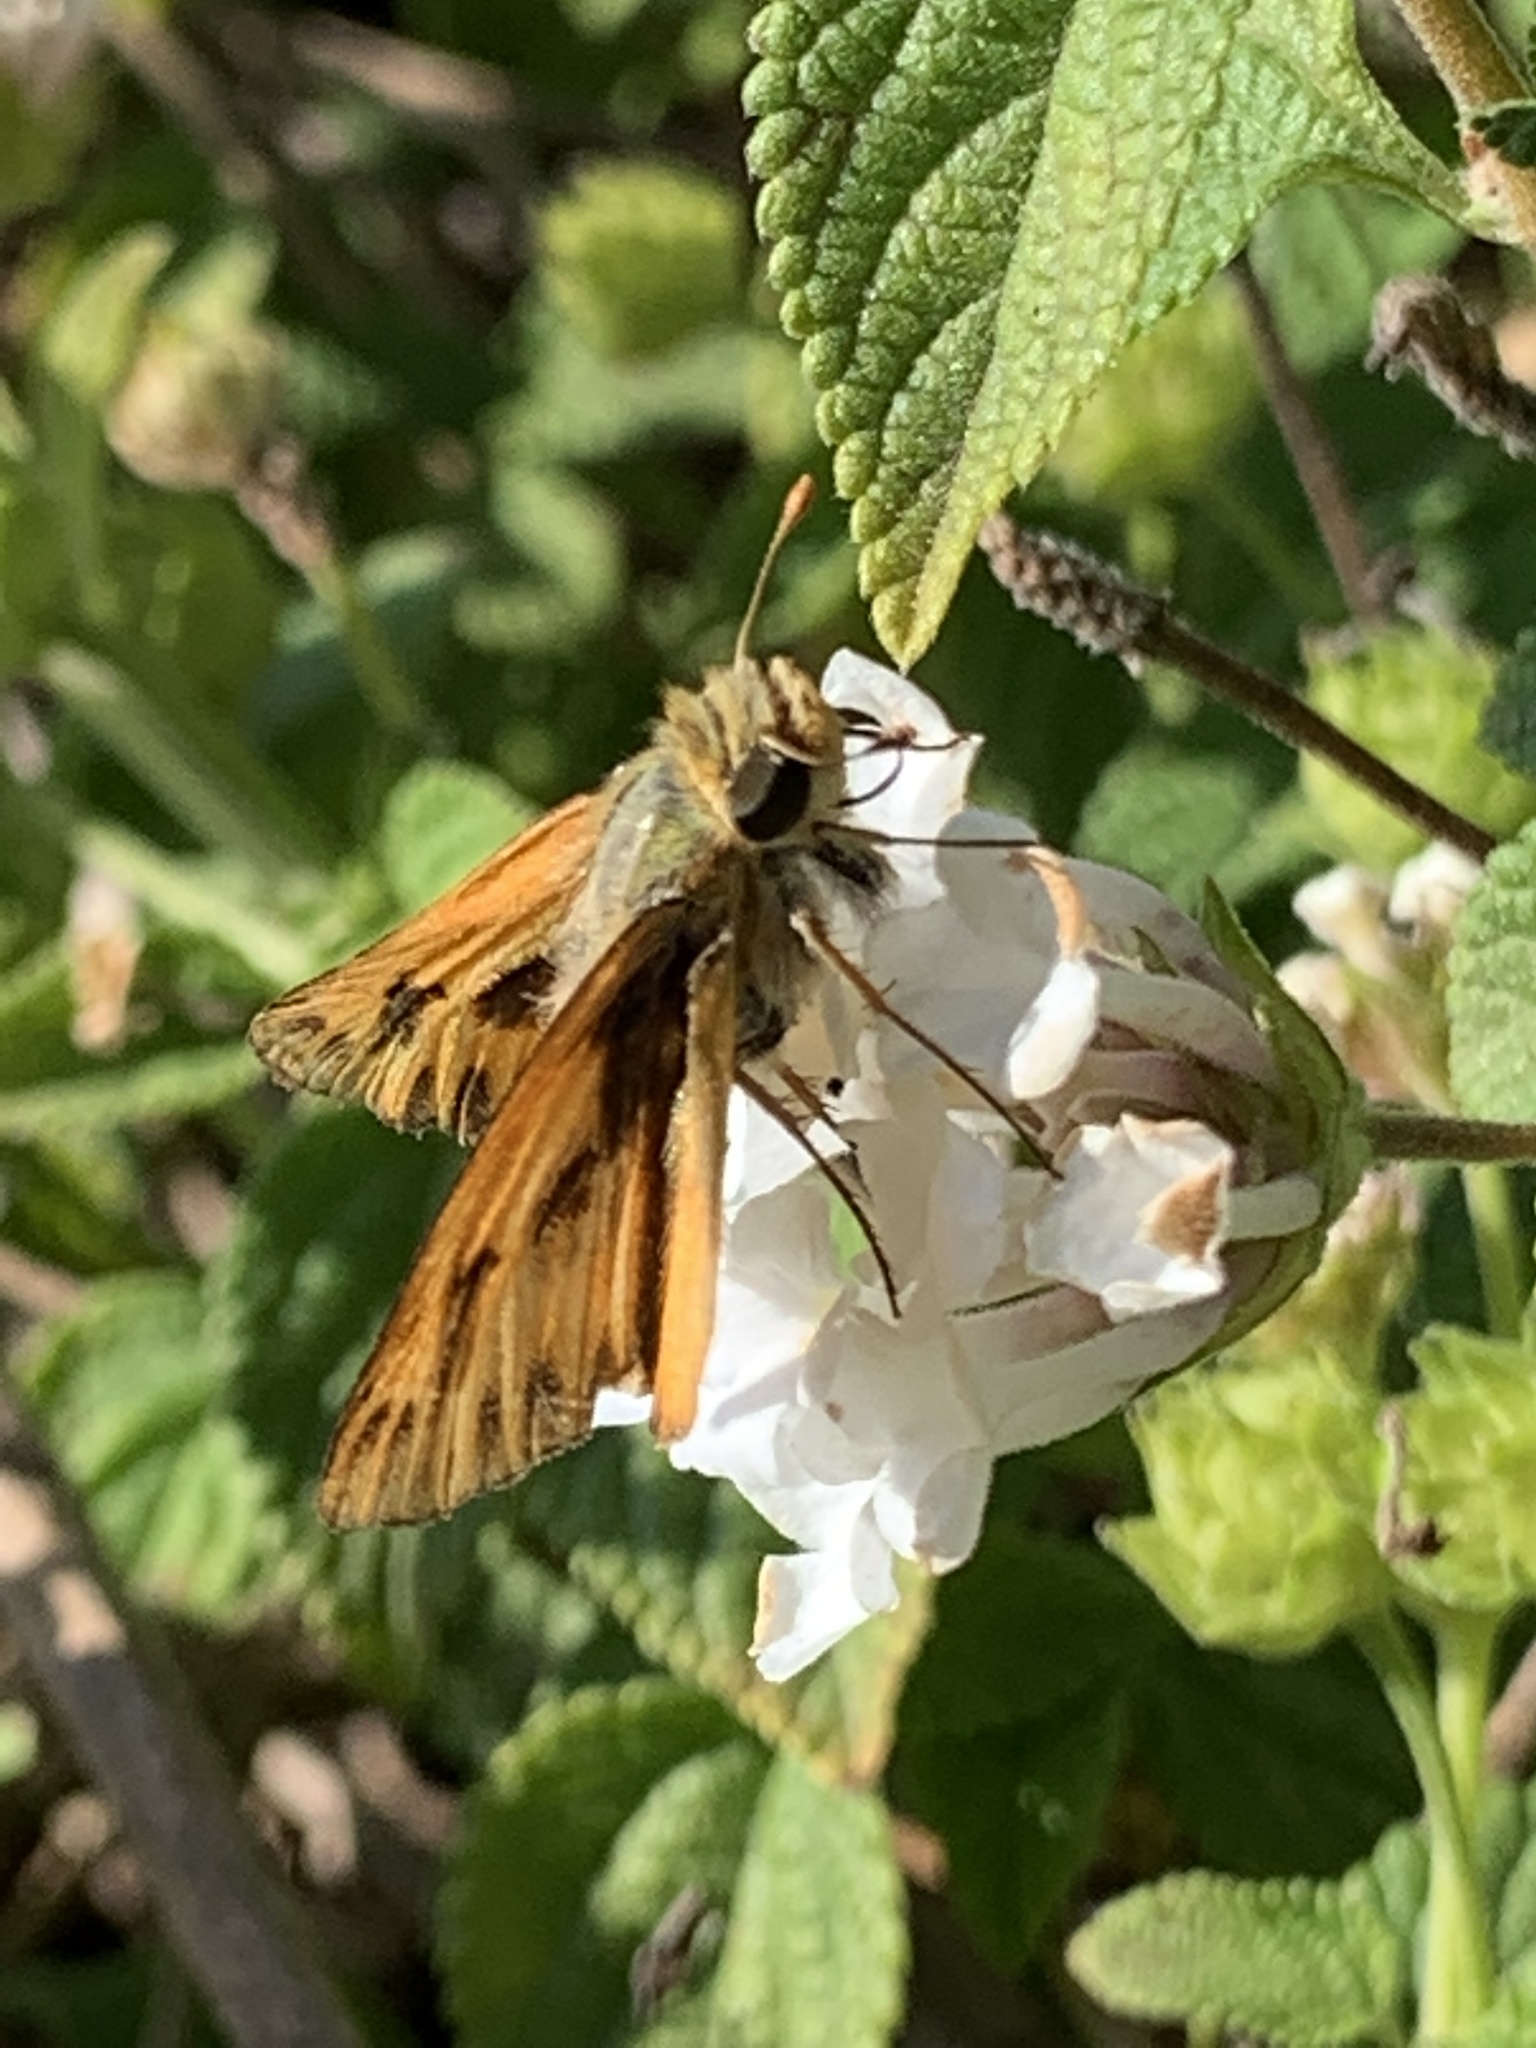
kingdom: Animalia
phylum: Arthropoda
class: Insecta
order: Lepidoptera
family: Hesperiidae
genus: Hylephila
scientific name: Hylephila phyleus
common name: Fiery skipper
